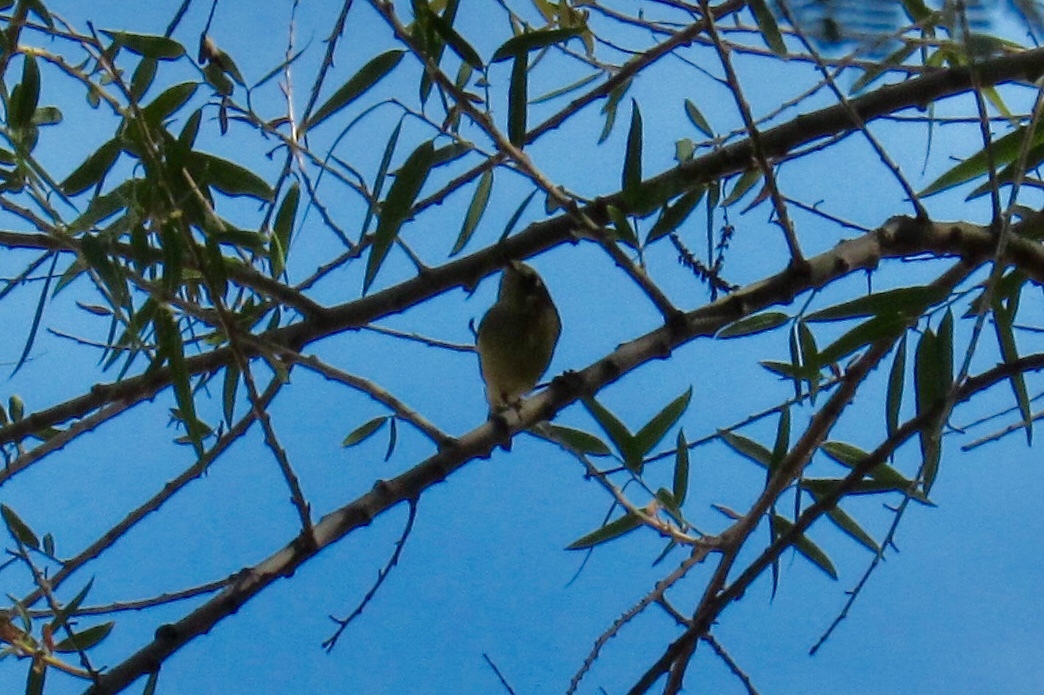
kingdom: Animalia
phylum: Chordata
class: Aves
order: Passeriformes
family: Regulidae
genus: Regulus
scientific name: Regulus calendula
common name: Ruby-crowned kinglet
